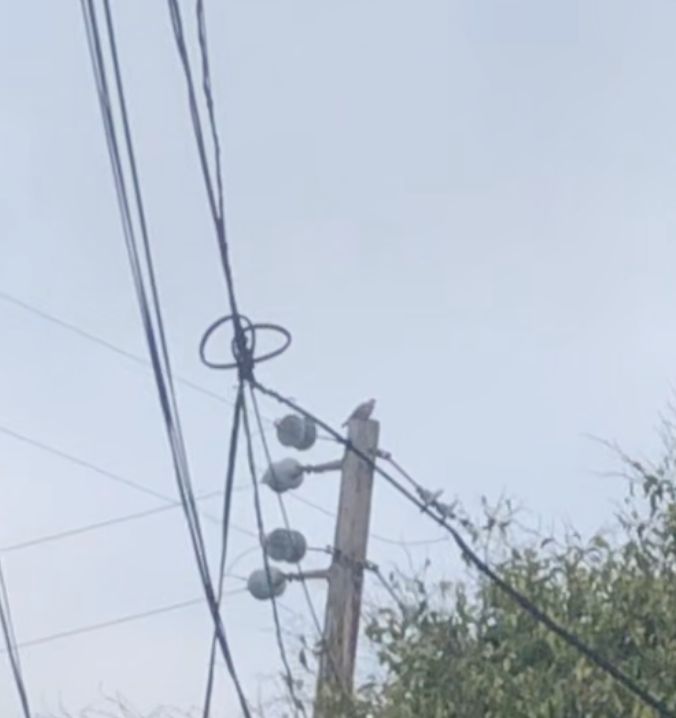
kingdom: Animalia
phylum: Chordata
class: Aves
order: Columbiformes
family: Columbidae
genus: Streptopelia
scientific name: Streptopelia decaocto
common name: Eurasian collared dove
